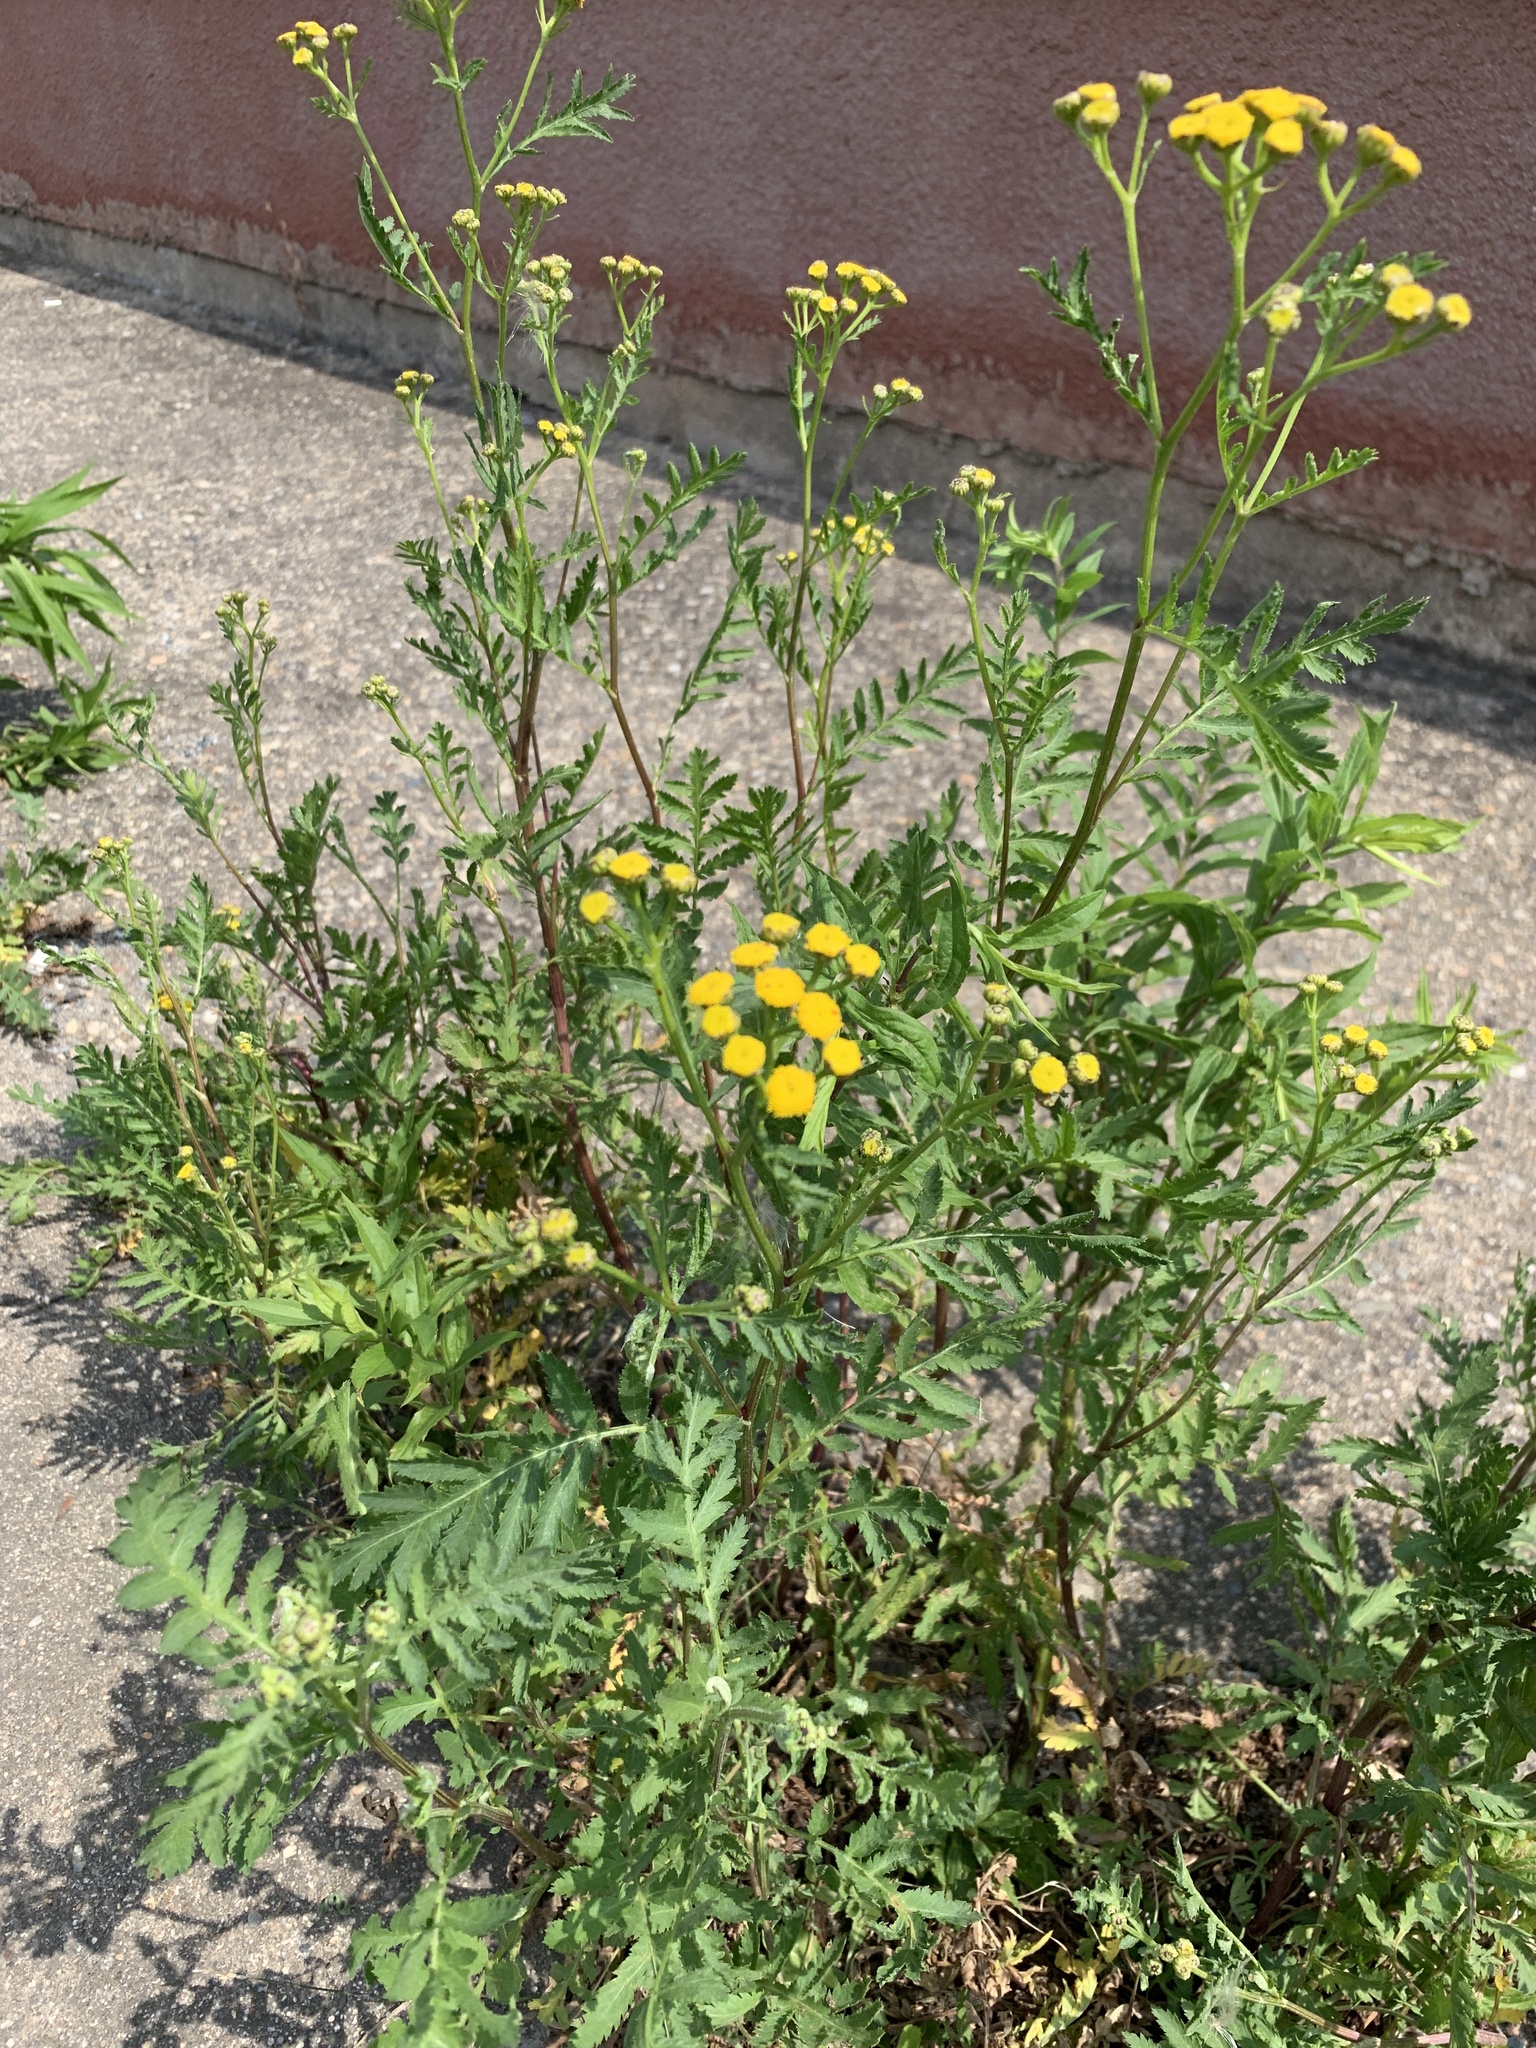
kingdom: Plantae
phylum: Tracheophyta
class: Magnoliopsida
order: Asterales
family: Asteraceae
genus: Tanacetum
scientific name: Tanacetum vulgare
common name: Common tansy
